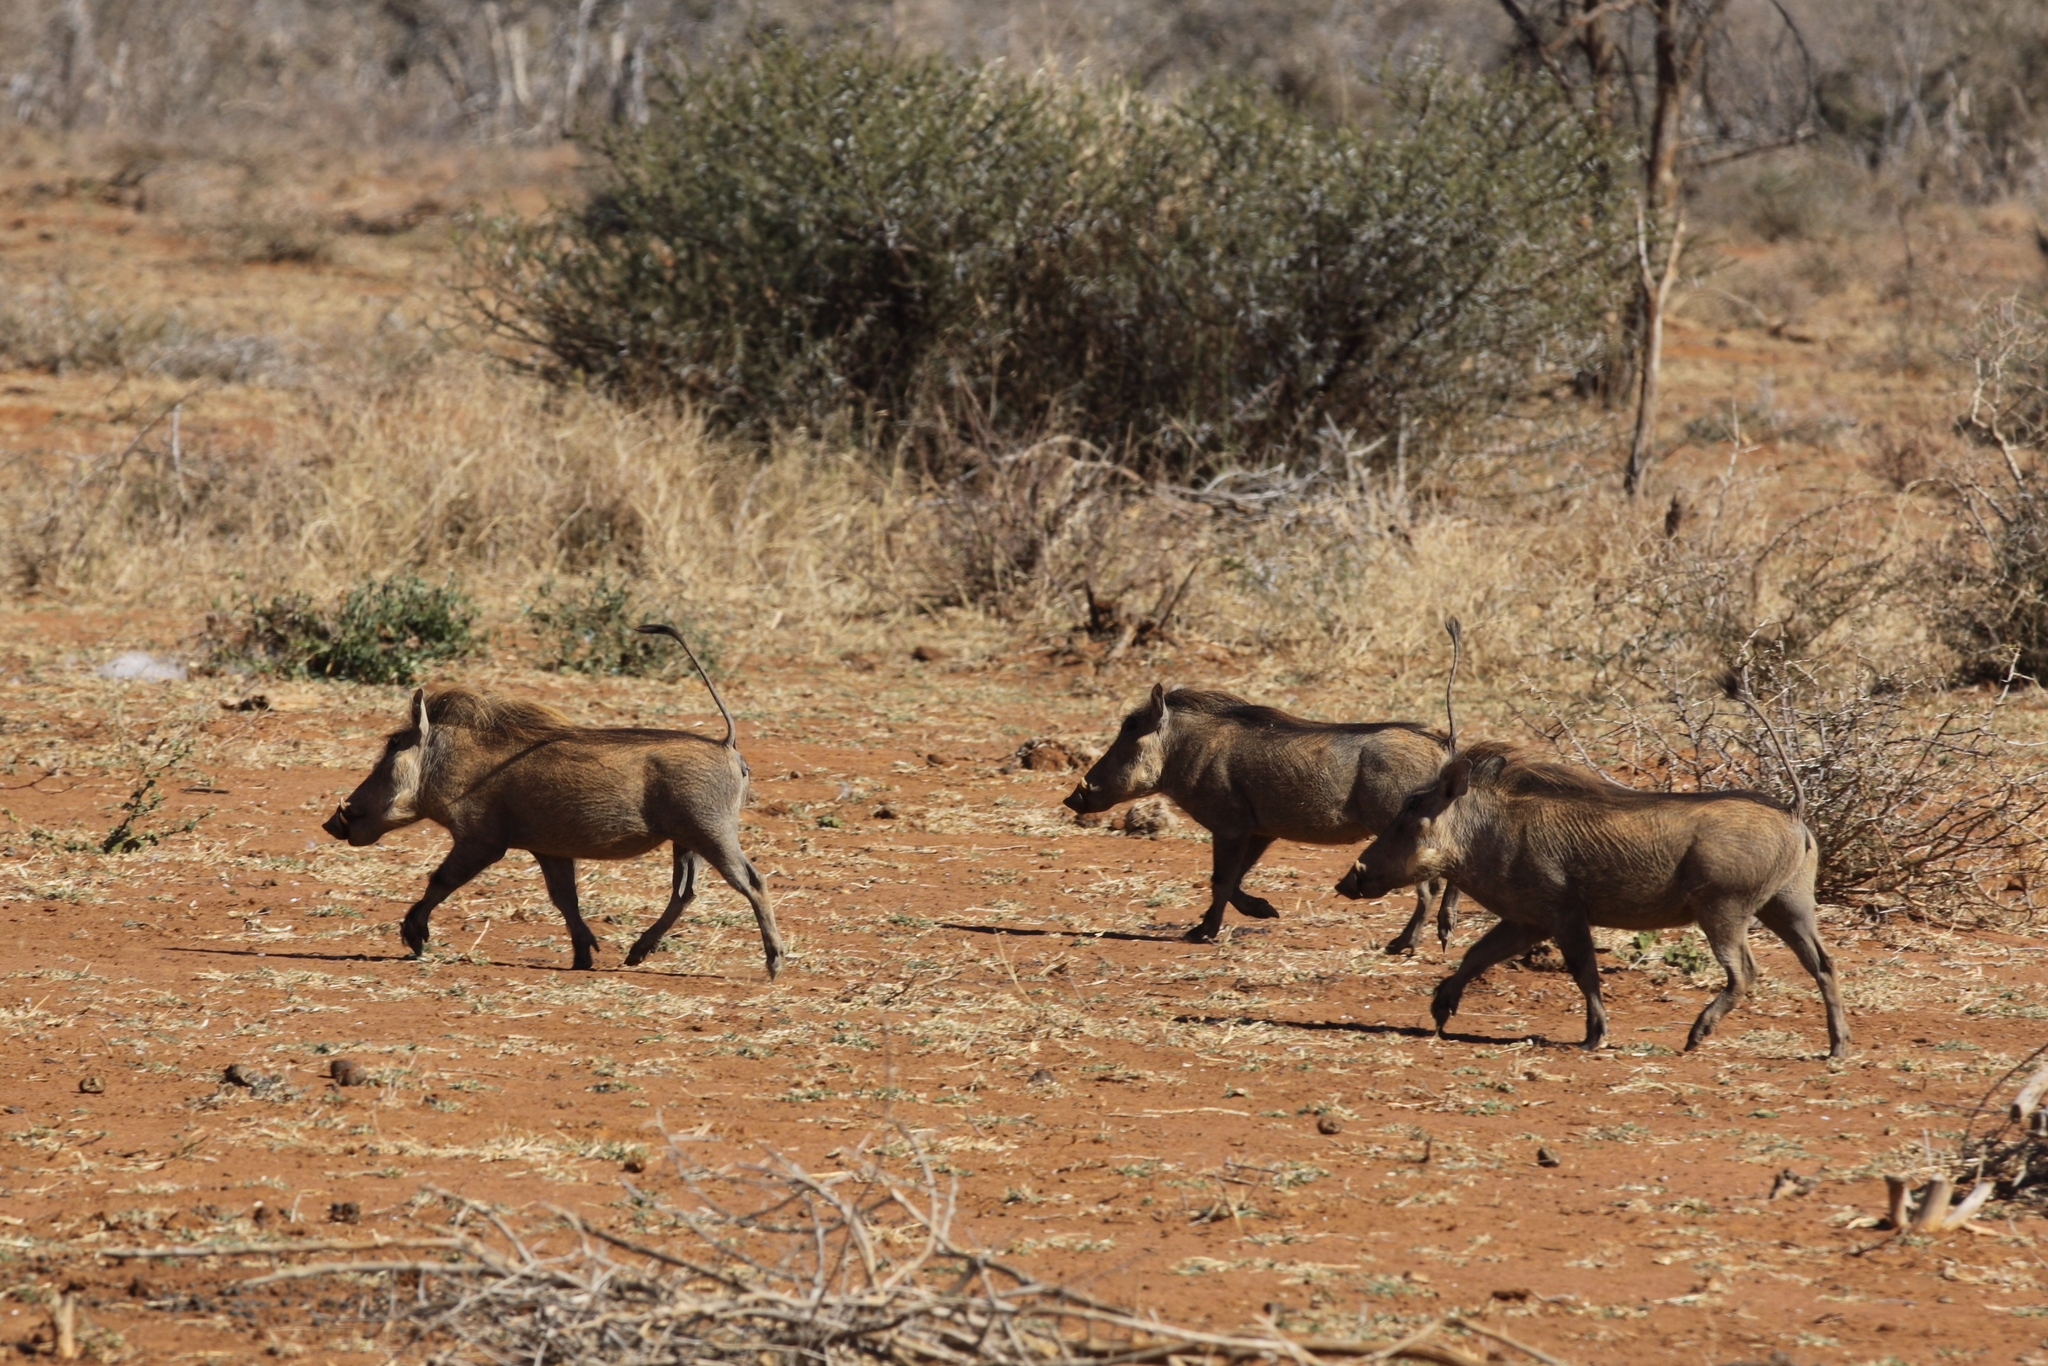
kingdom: Animalia
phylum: Chordata
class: Mammalia
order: Artiodactyla
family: Suidae
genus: Phacochoerus
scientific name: Phacochoerus africanus
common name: Common warthog
